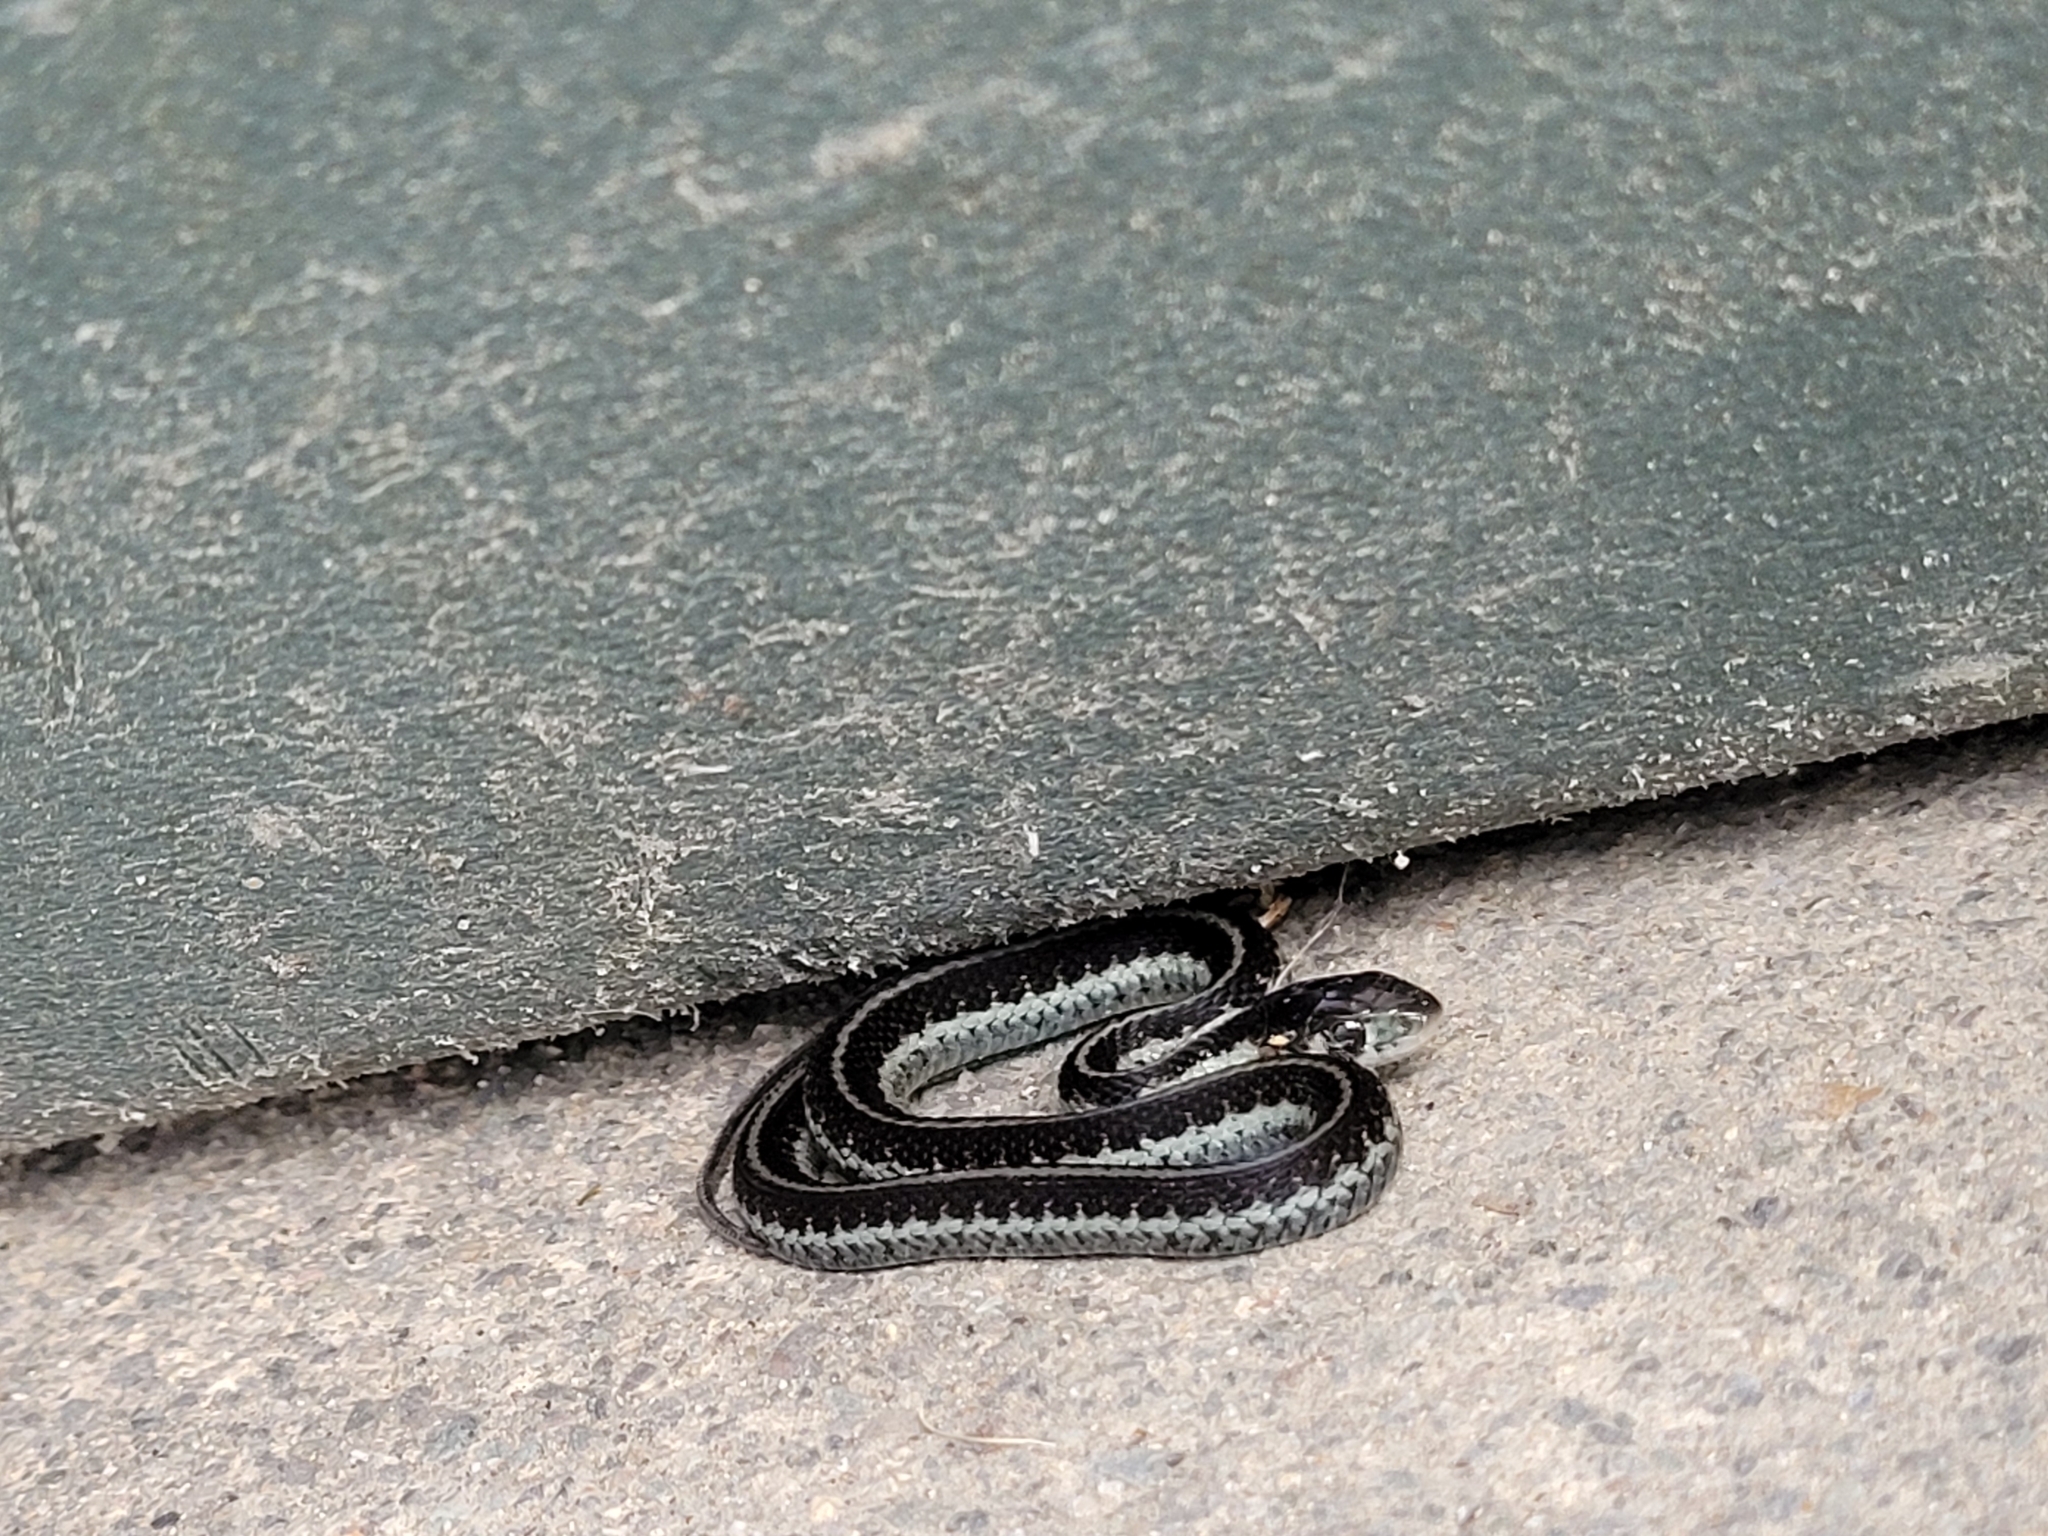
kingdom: Animalia
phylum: Chordata
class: Squamata
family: Colubridae
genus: Thamnophis
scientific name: Thamnophis ordinoides
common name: Northwestern garter snake
